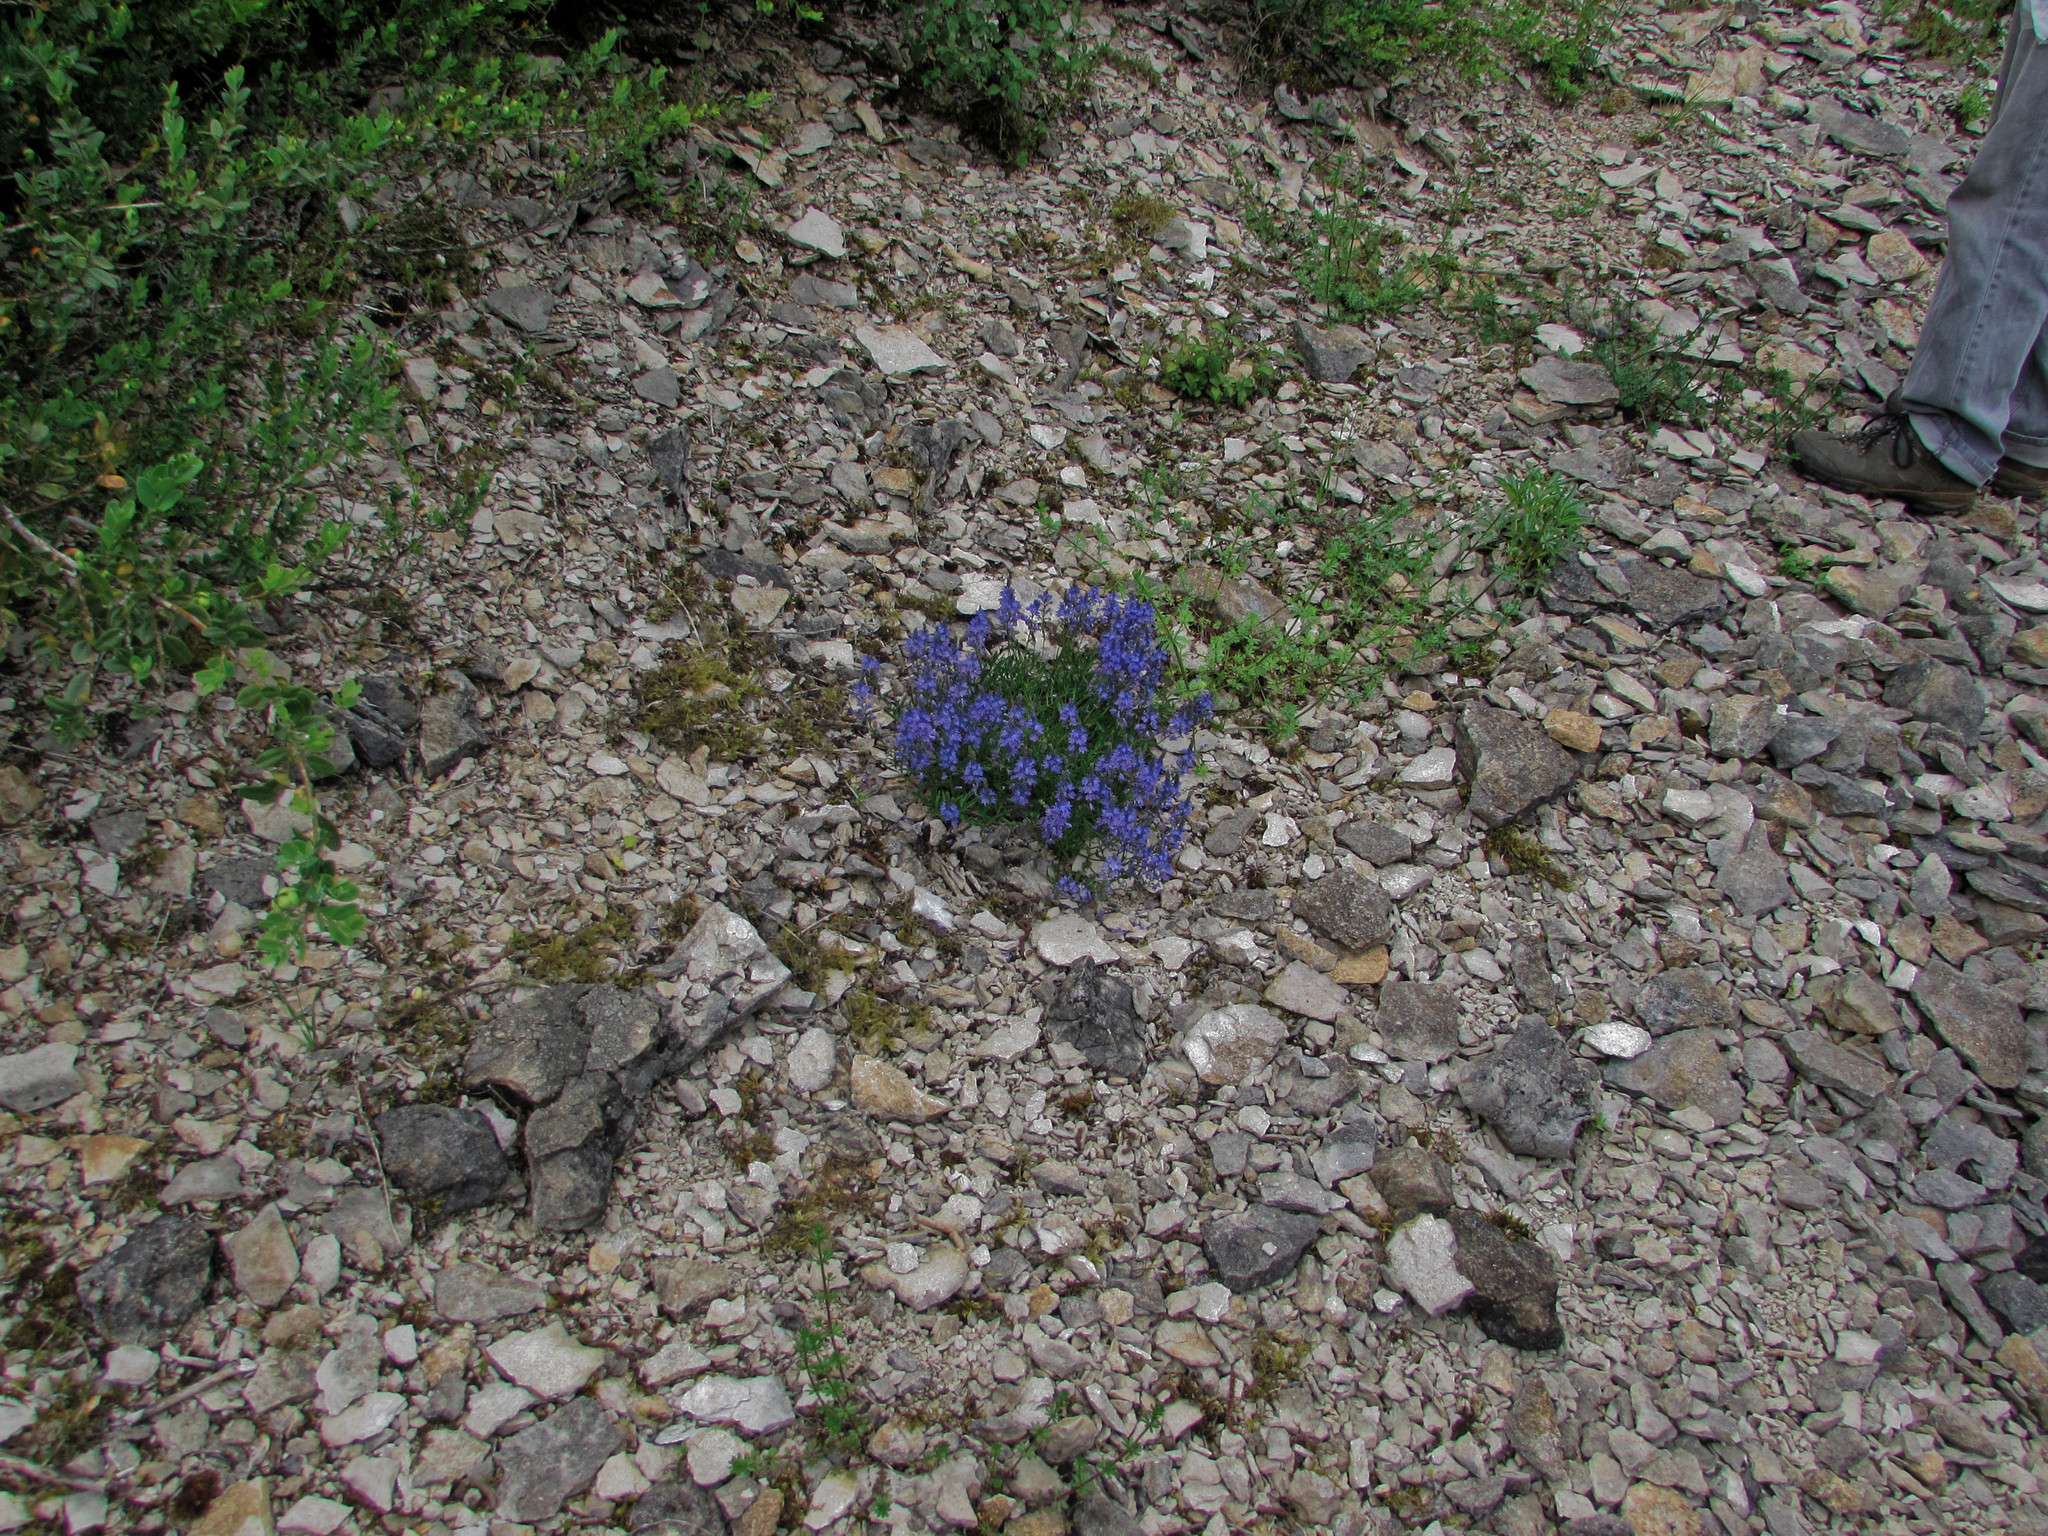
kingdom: Plantae
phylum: Tracheophyta
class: Magnoliopsida
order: Lamiales
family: Plantaginaceae
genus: Veronica
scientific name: Veronica satureiifolia
